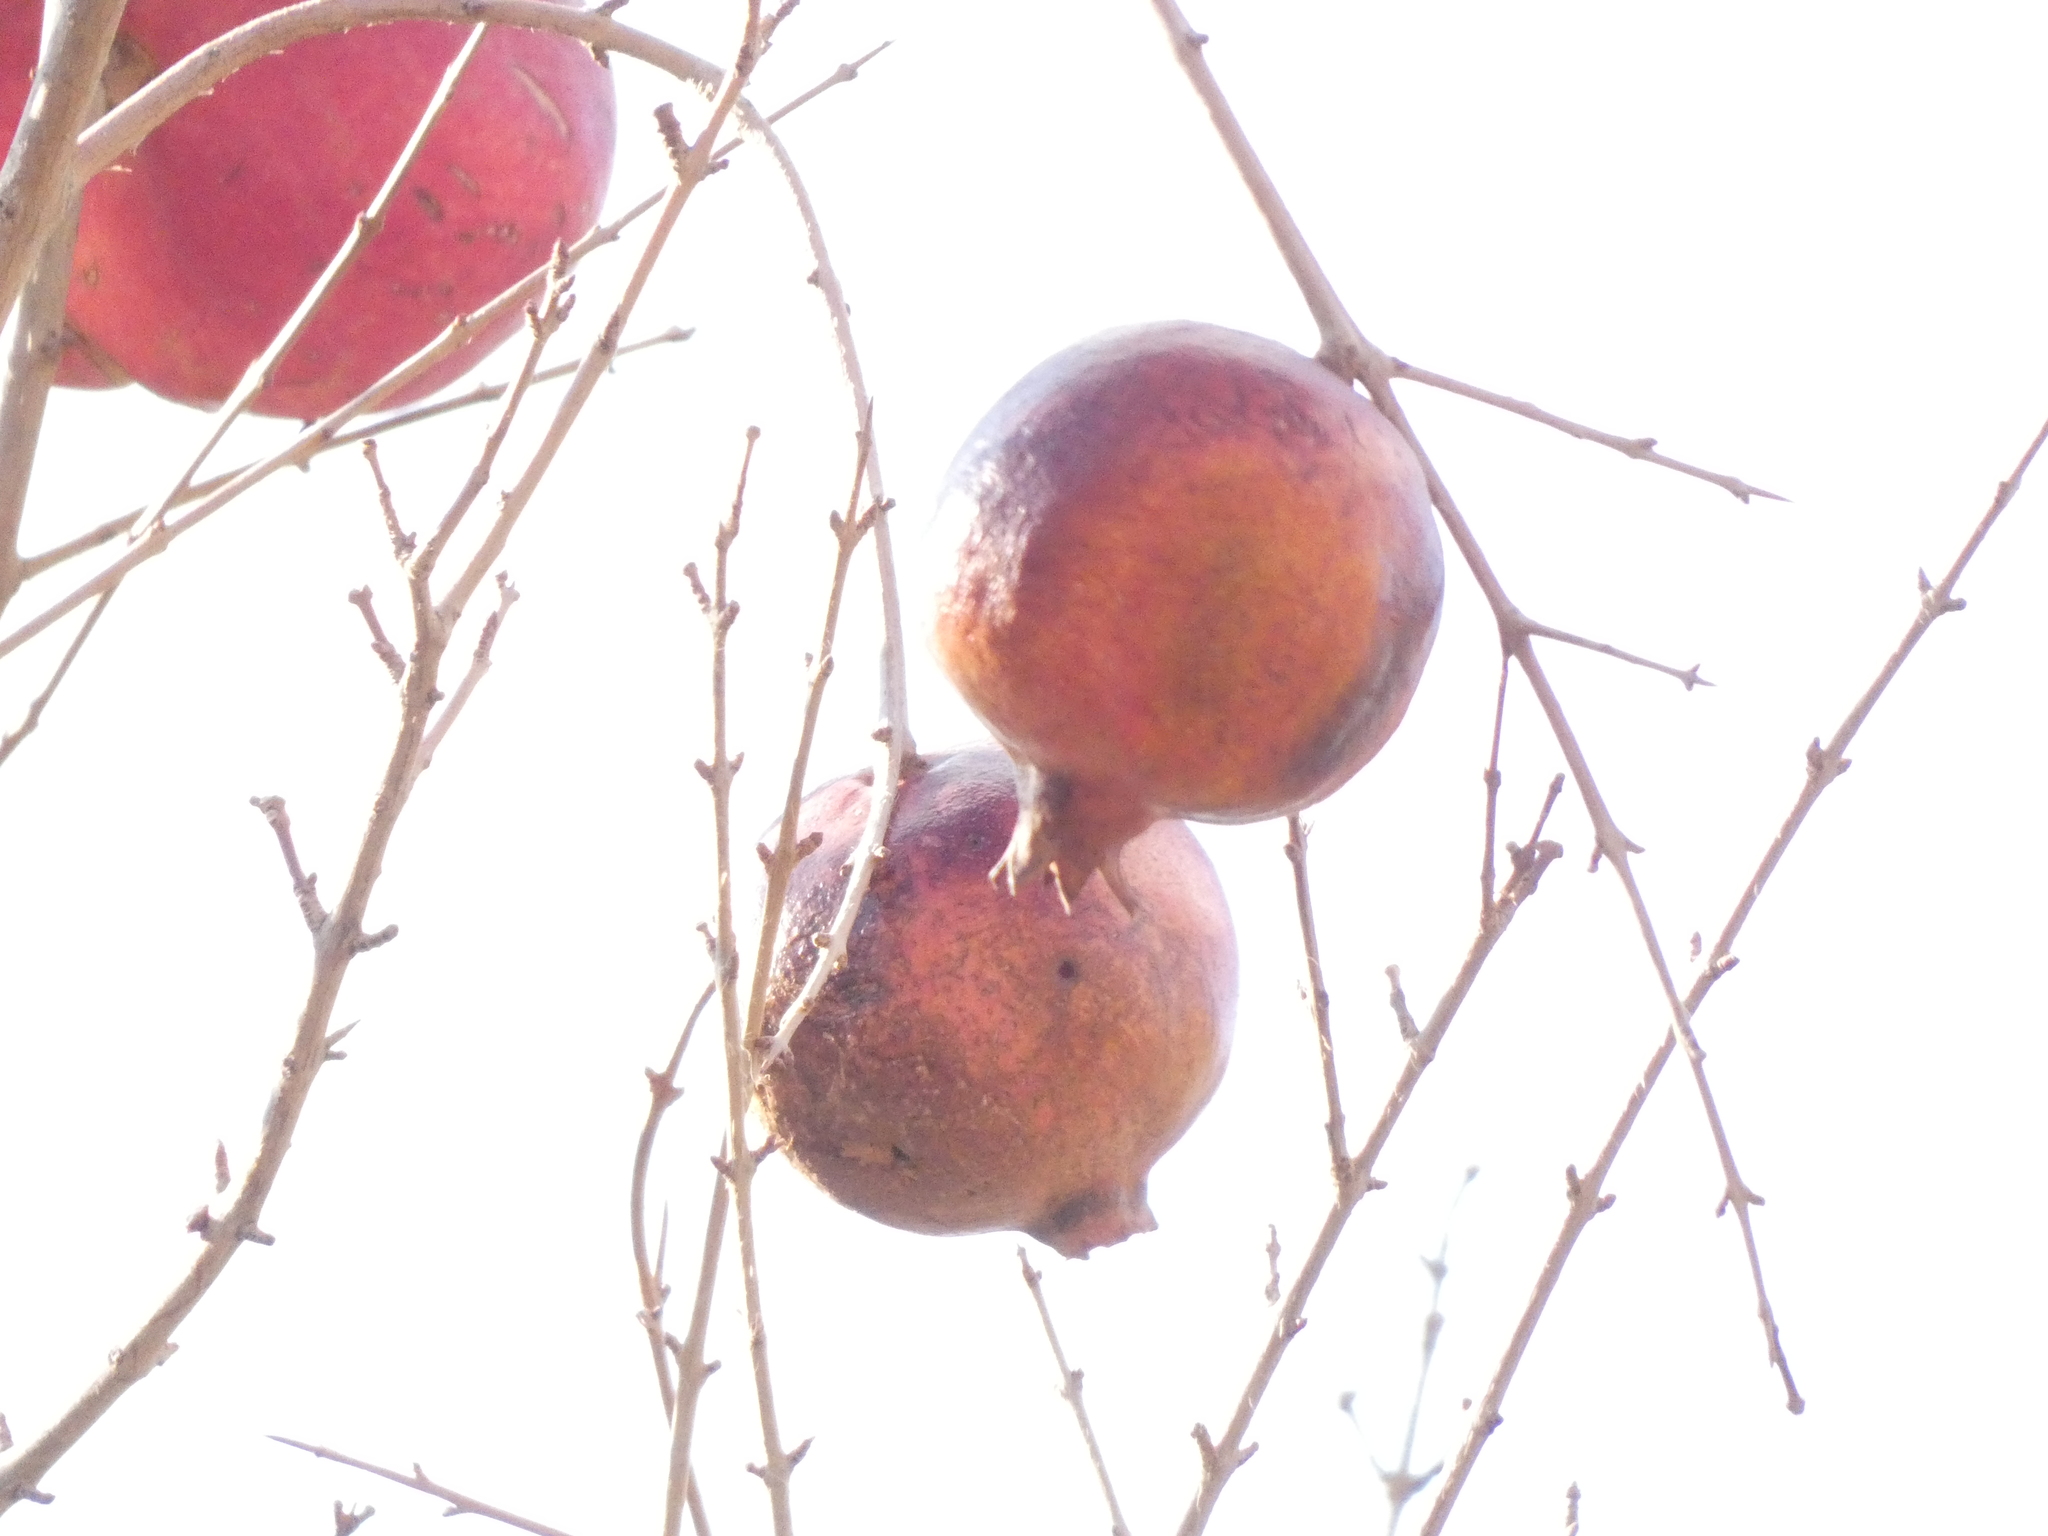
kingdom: Plantae
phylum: Tracheophyta
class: Magnoliopsida
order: Myrtales
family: Lythraceae
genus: Punica
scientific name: Punica granatum
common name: Pomegranate
